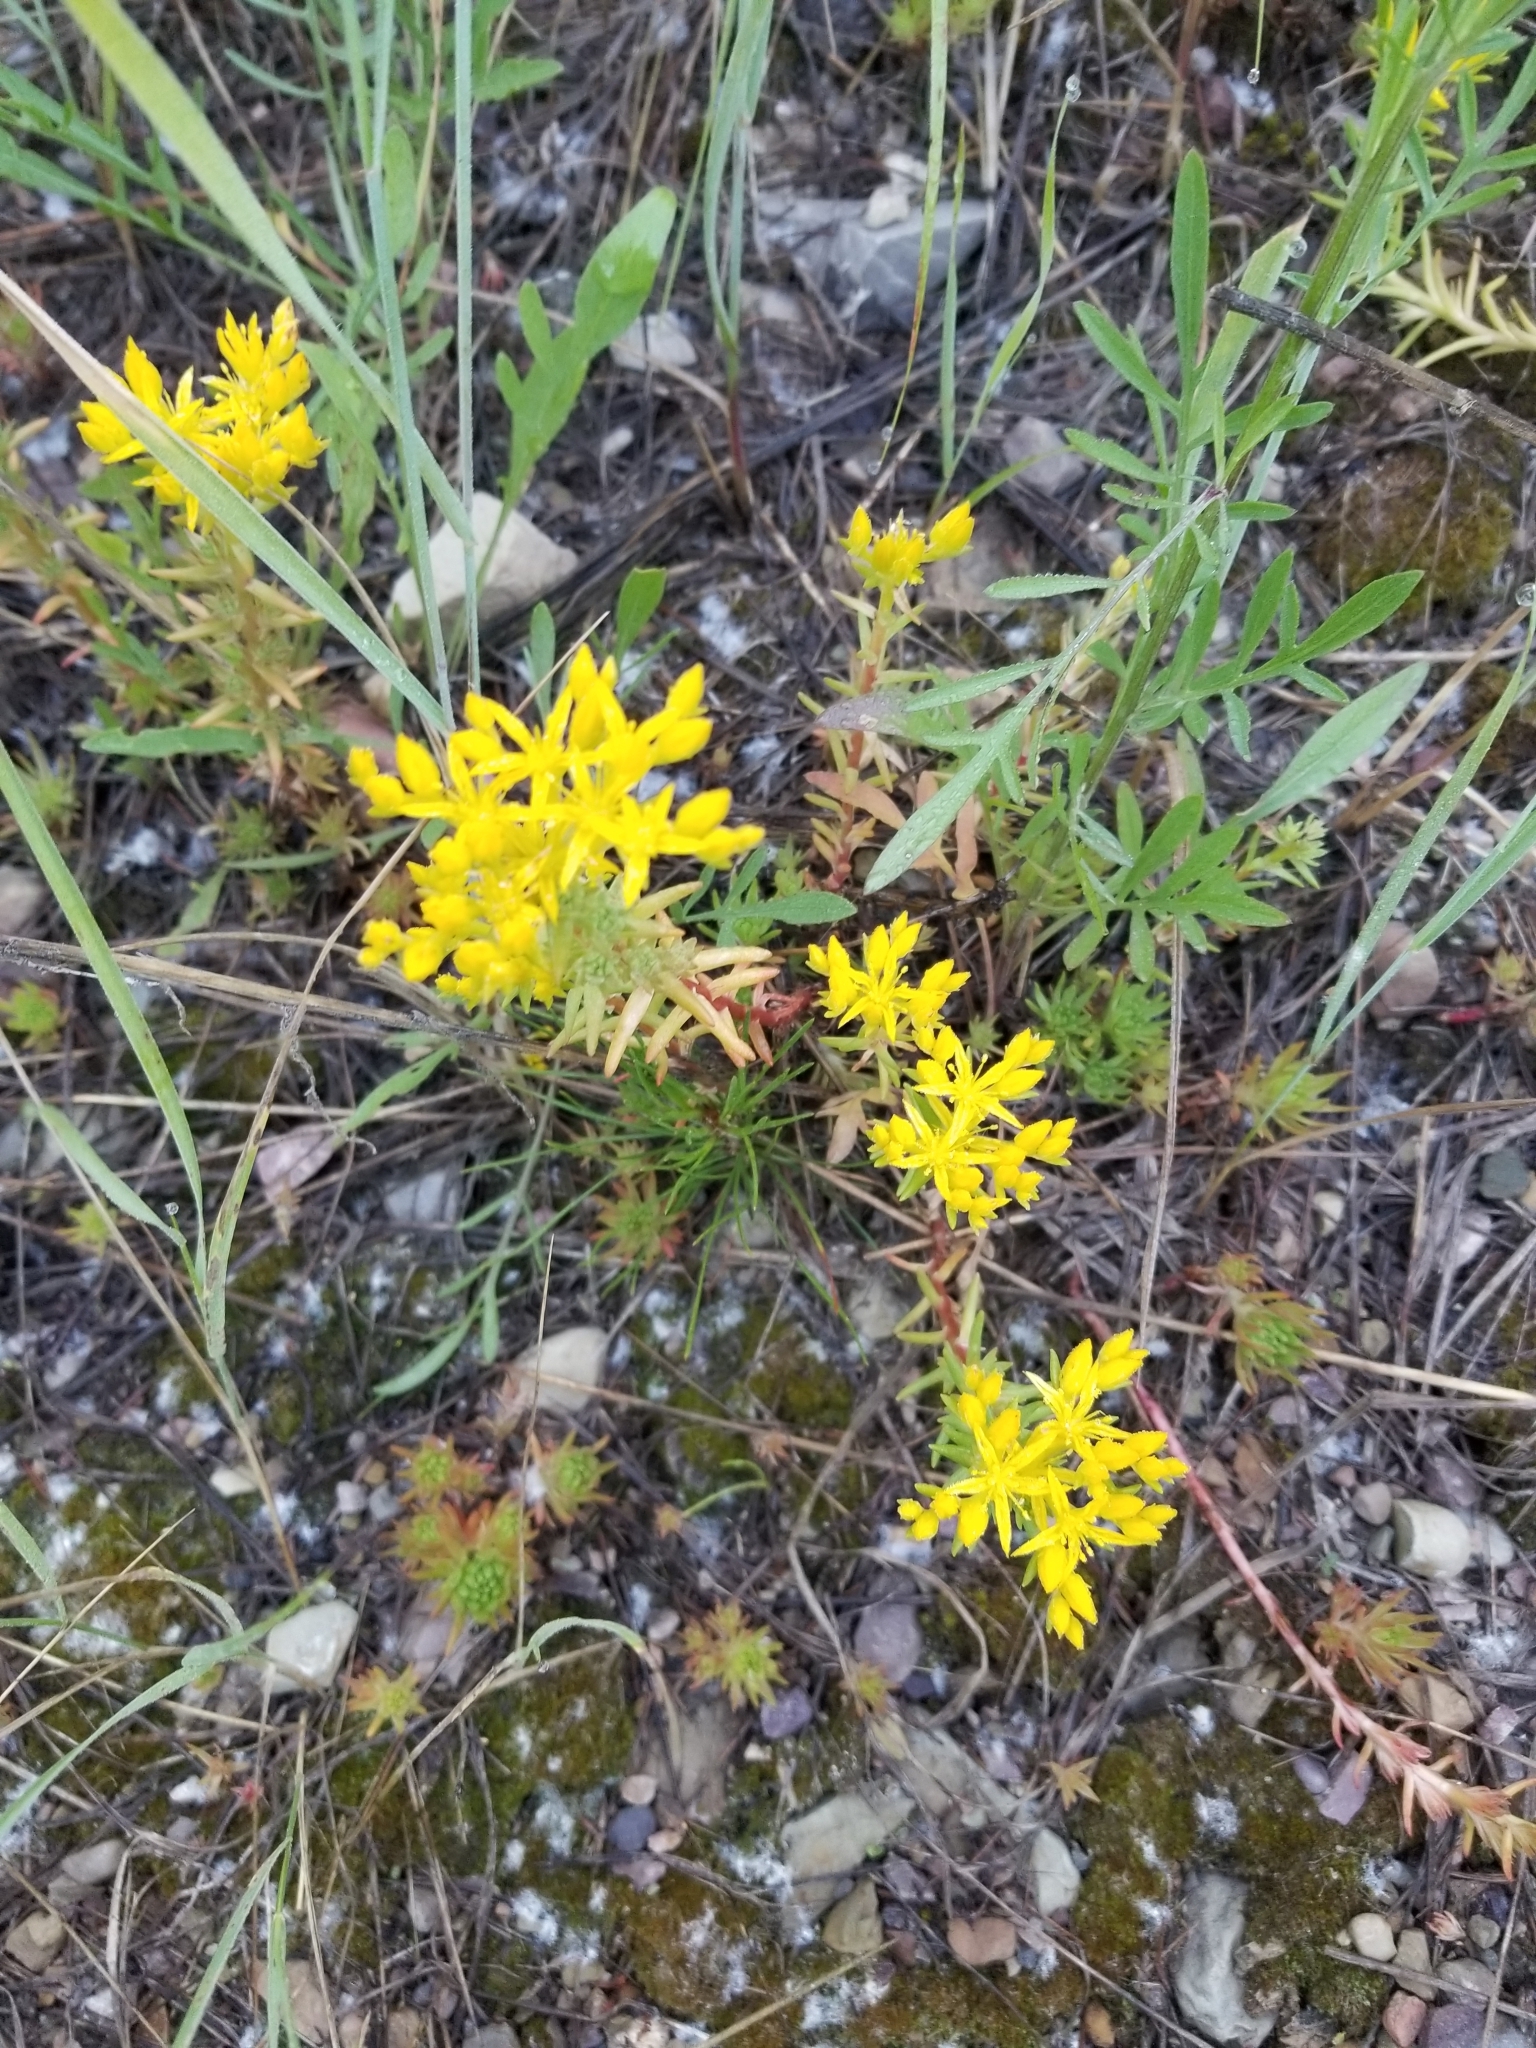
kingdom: Plantae
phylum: Tracheophyta
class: Magnoliopsida
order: Saxifragales
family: Crassulaceae
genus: Sedum
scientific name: Sedum stenopetalum
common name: Narrow-petaled stonecrop
